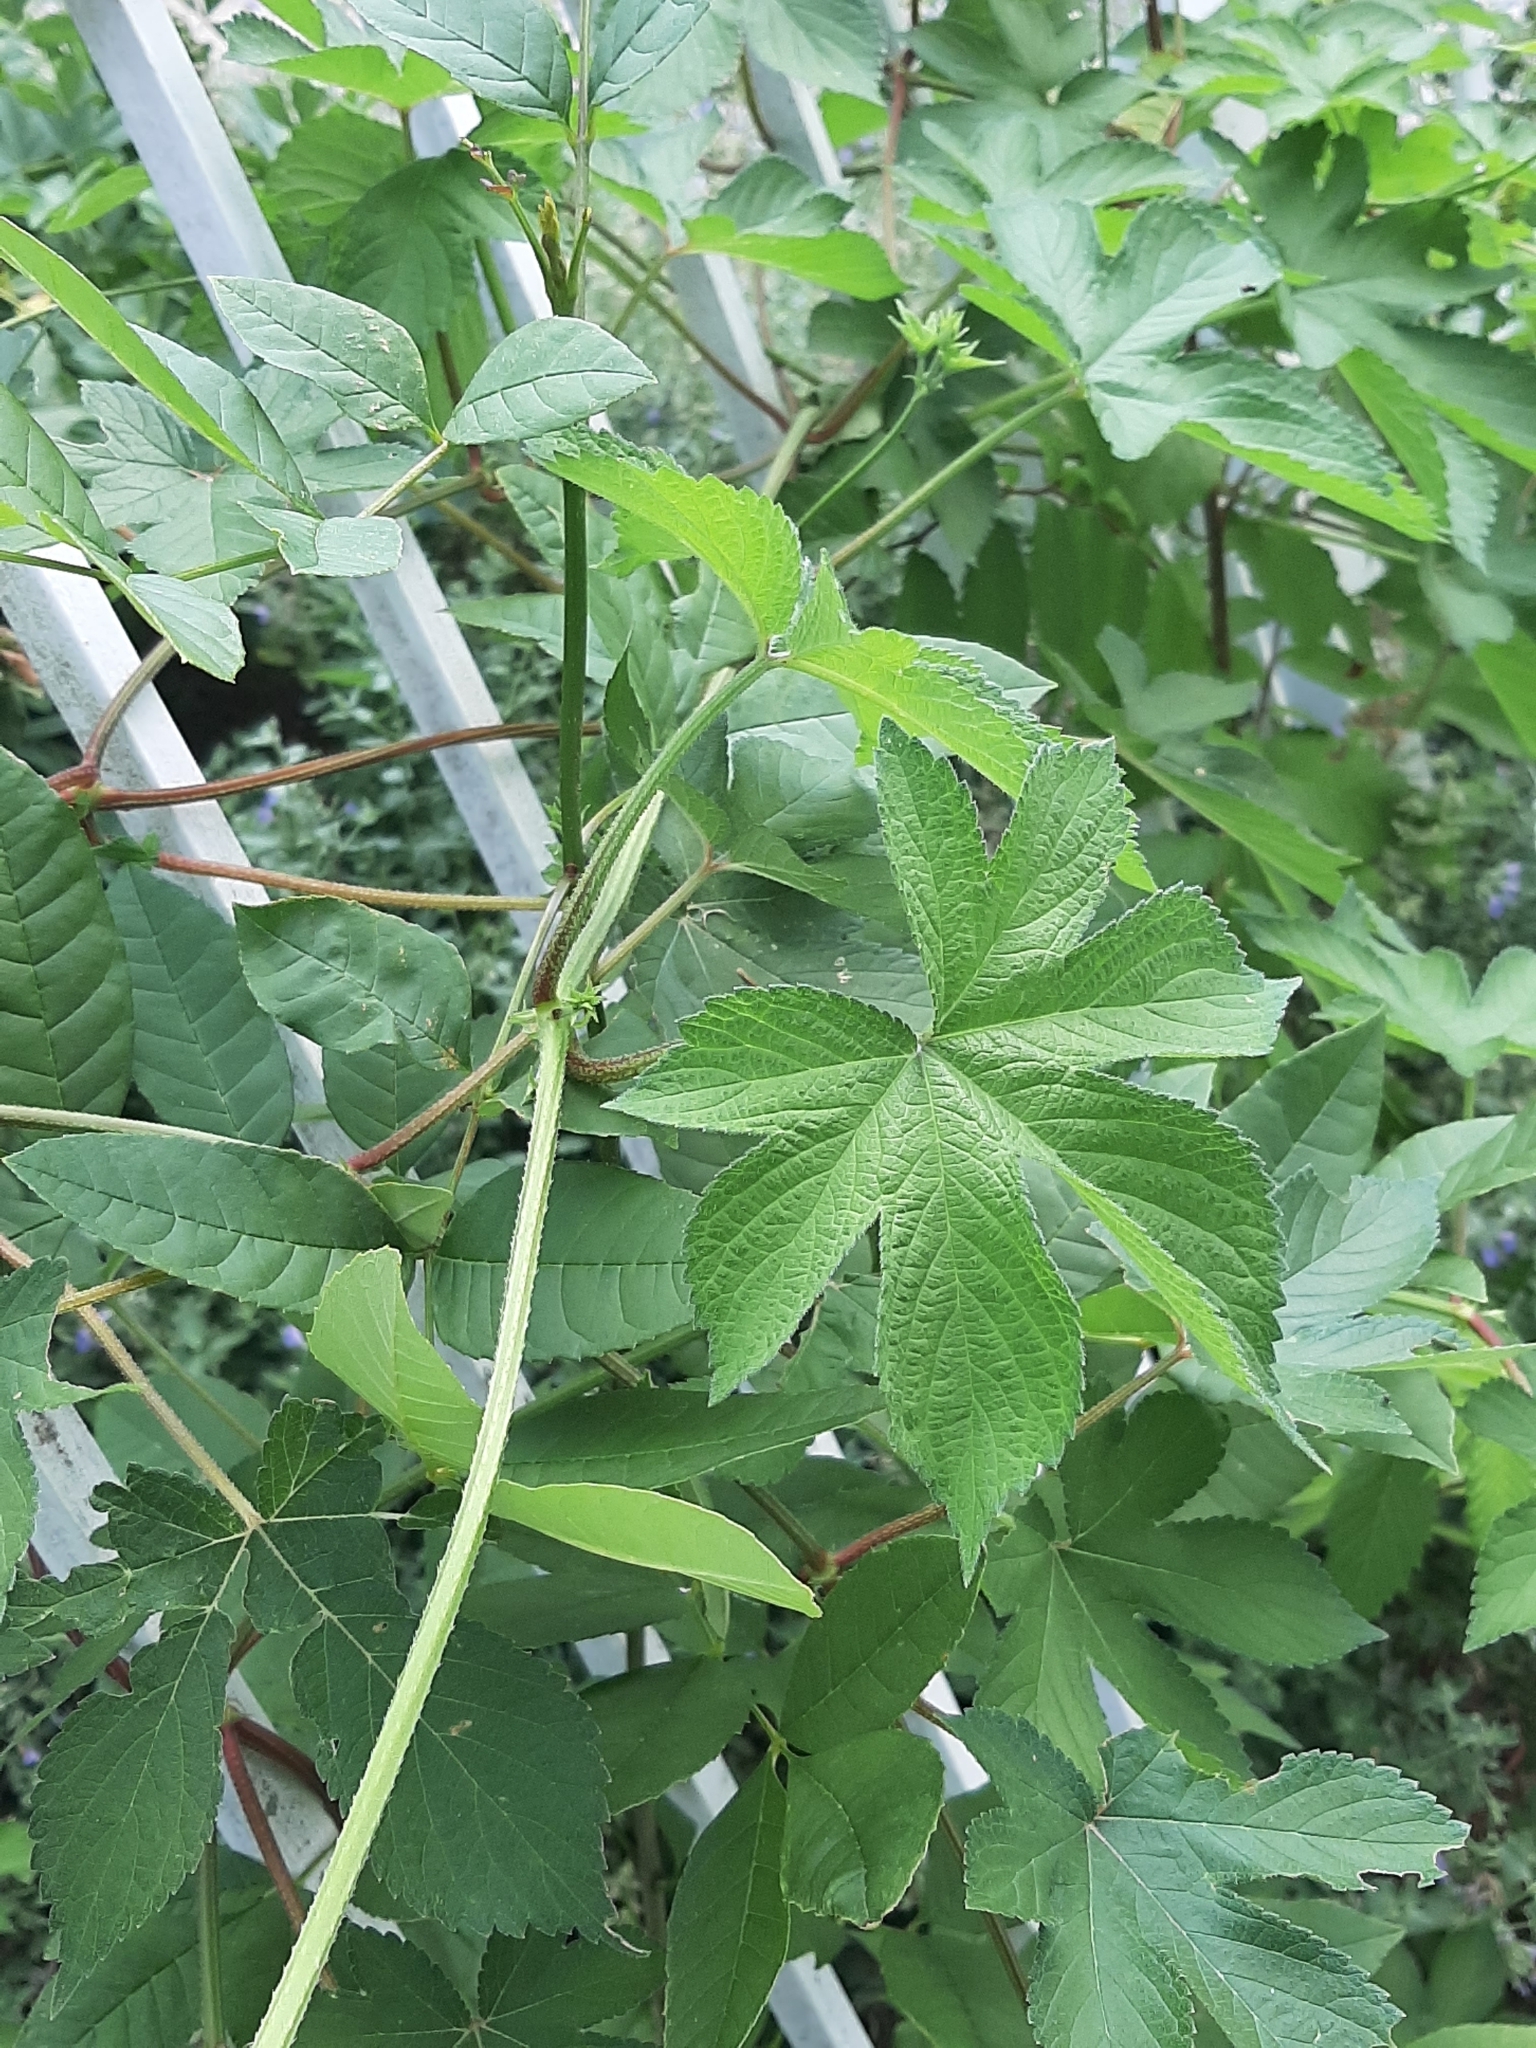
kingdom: Plantae
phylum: Tracheophyta
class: Magnoliopsida
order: Rosales
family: Cannabaceae
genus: Humulus
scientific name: Humulus scandens
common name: Japanese hop
